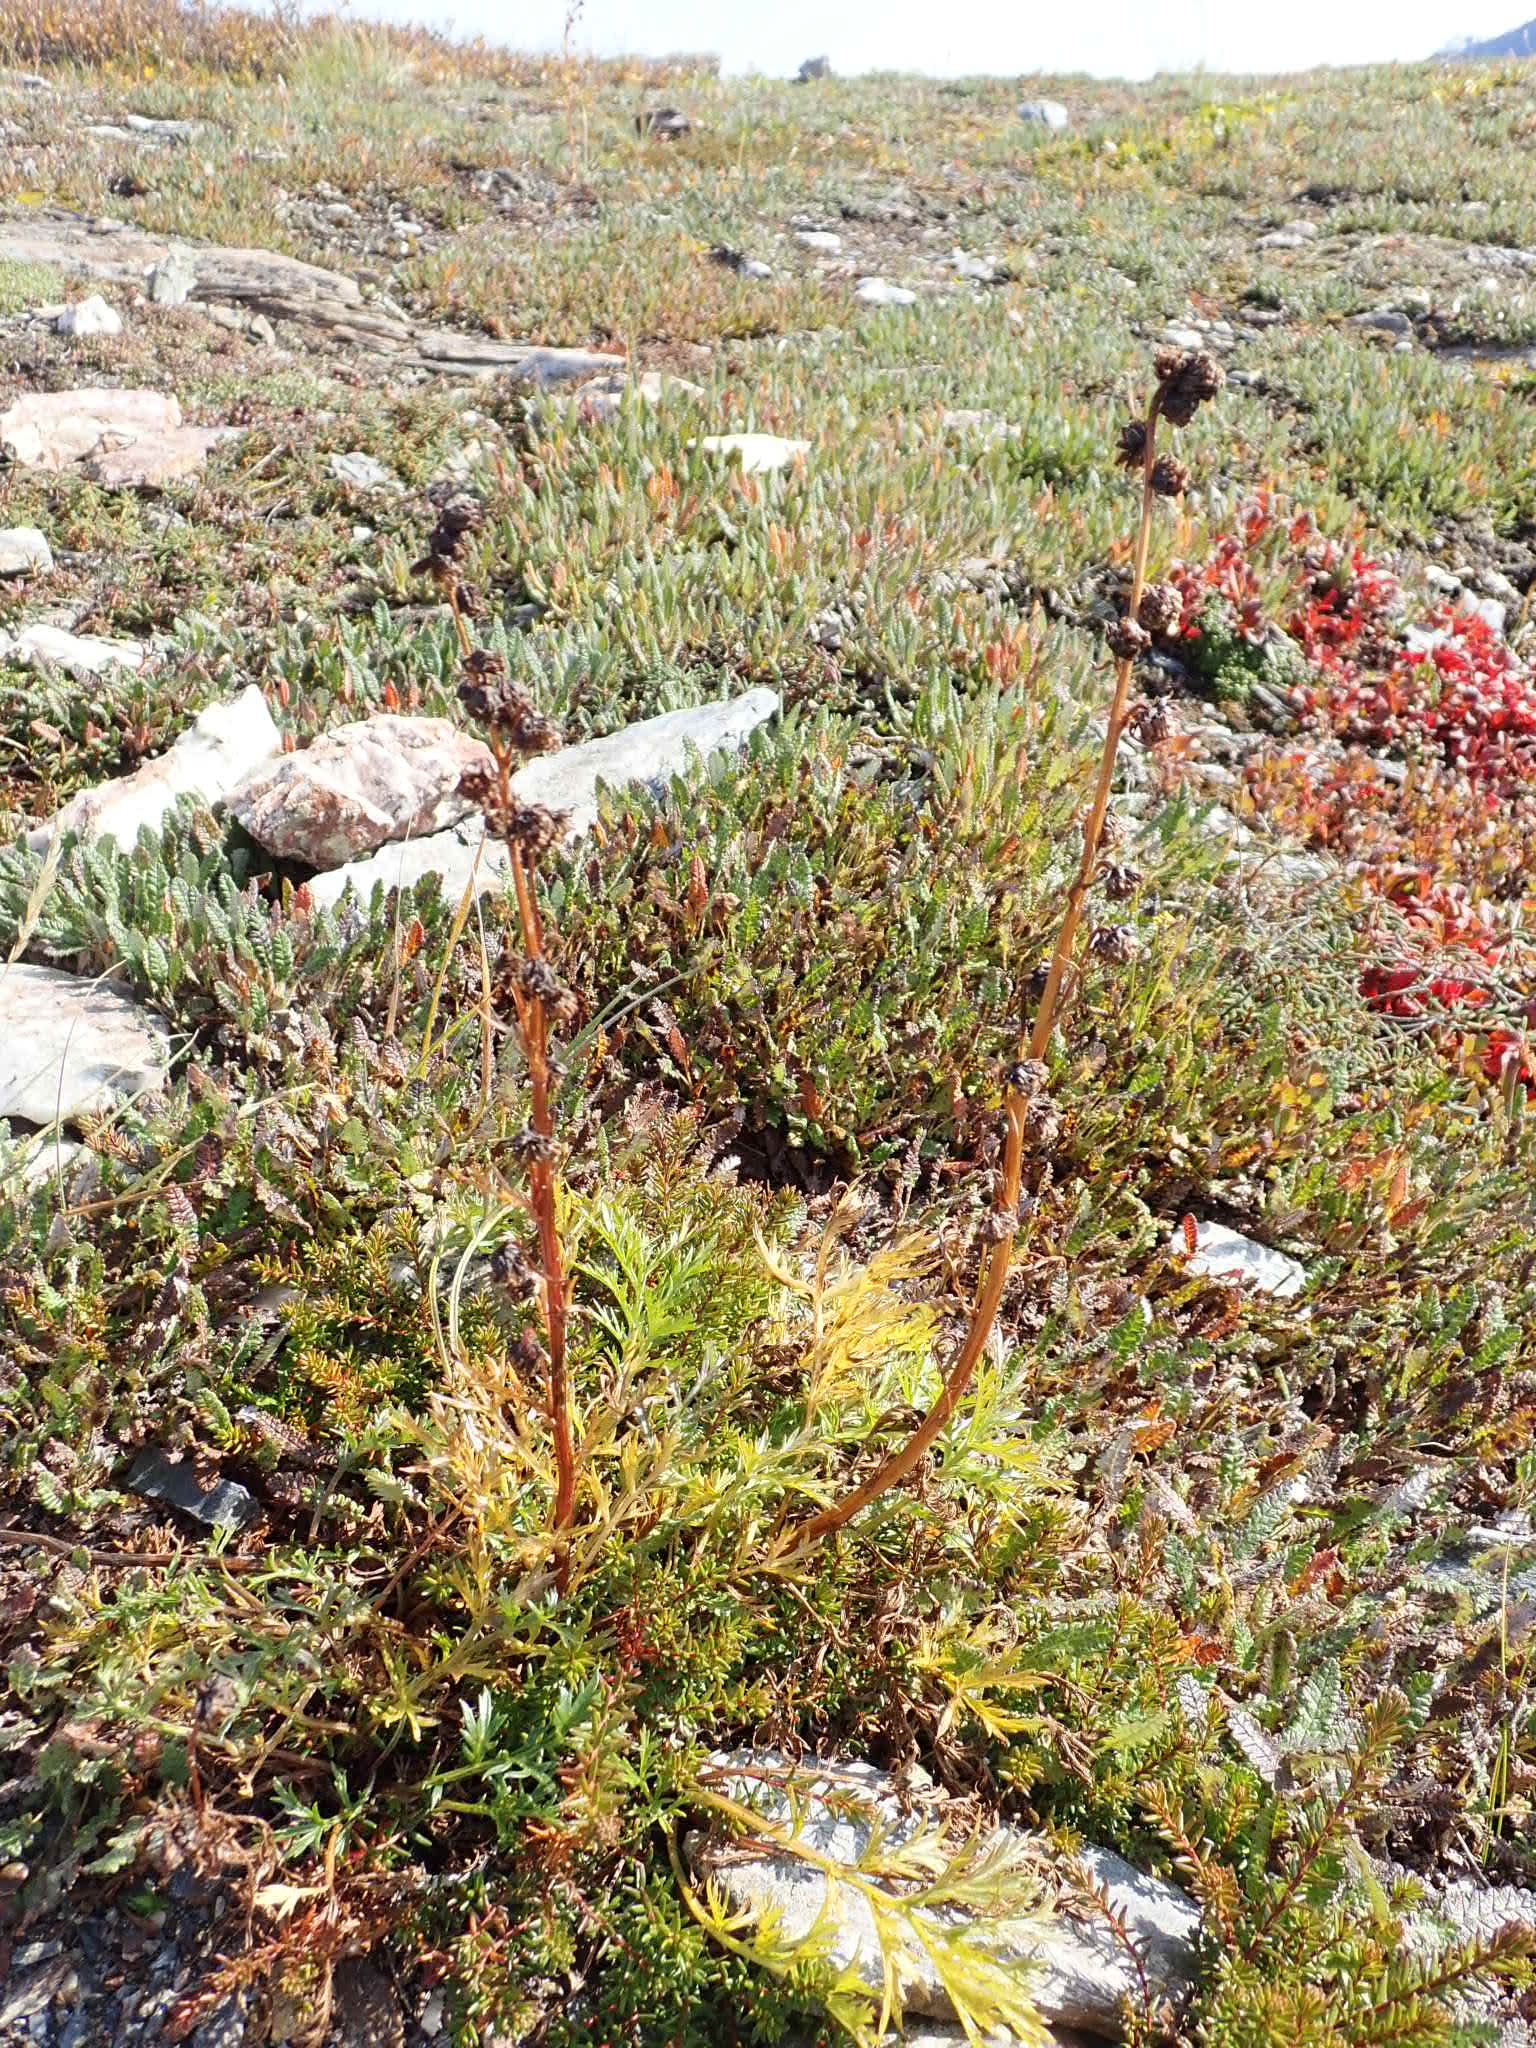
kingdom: Plantae
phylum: Tracheophyta
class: Magnoliopsida
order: Asterales
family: Asteraceae
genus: Artemisia
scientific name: Artemisia norvegica
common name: Norwegian mugwort
